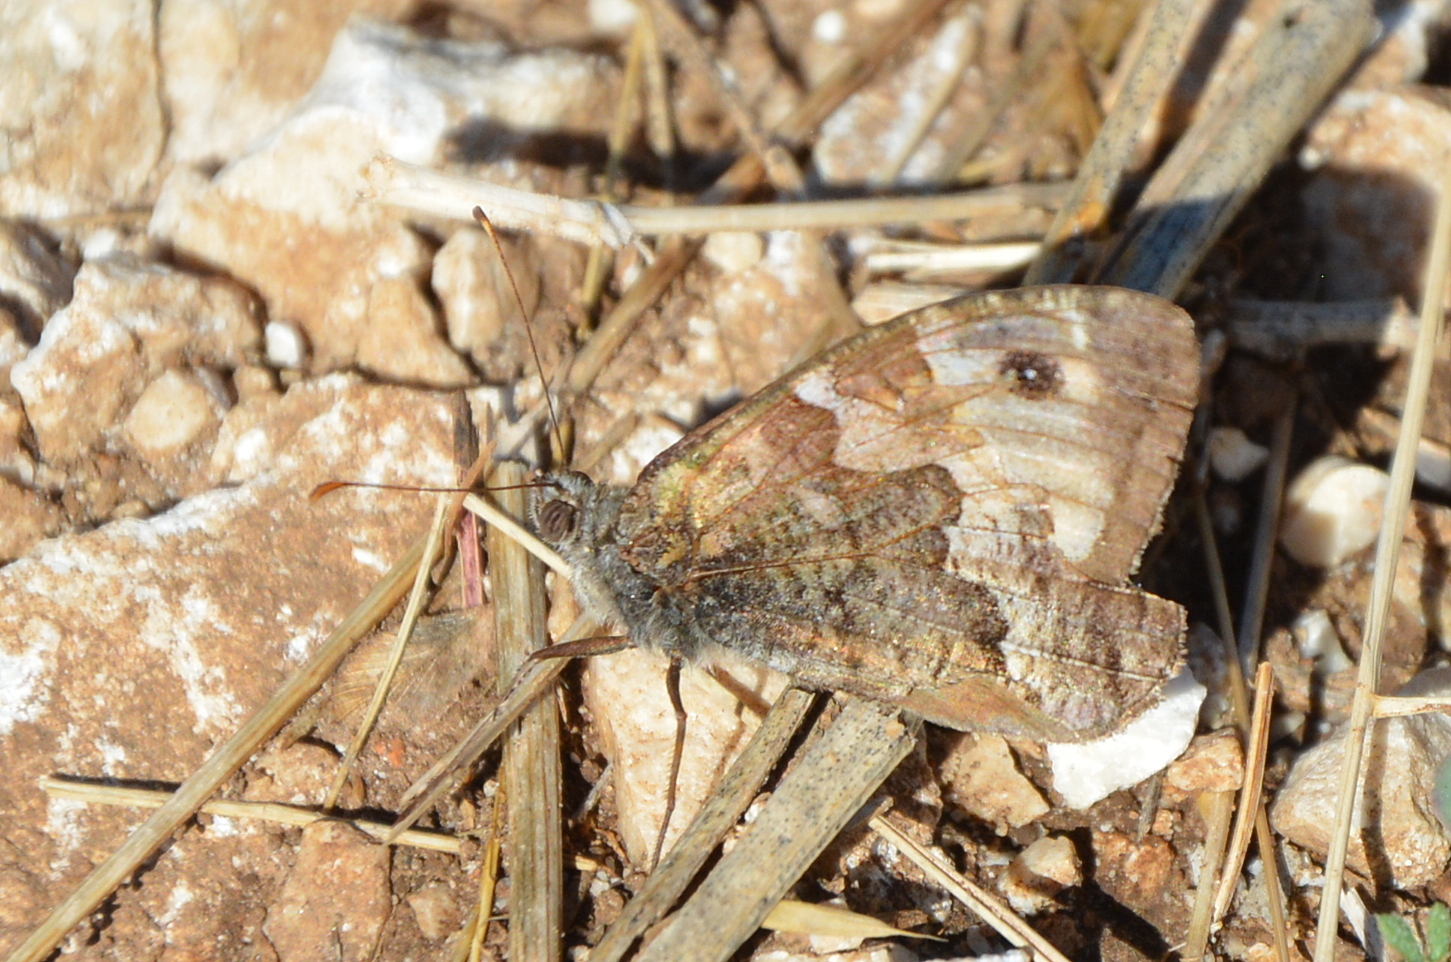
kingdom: Animalia
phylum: Arthropoda
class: Insecta
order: Lepidoptera
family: Nymphalidae
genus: Hipparchia
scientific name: Hipparchia semele
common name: Grayling
